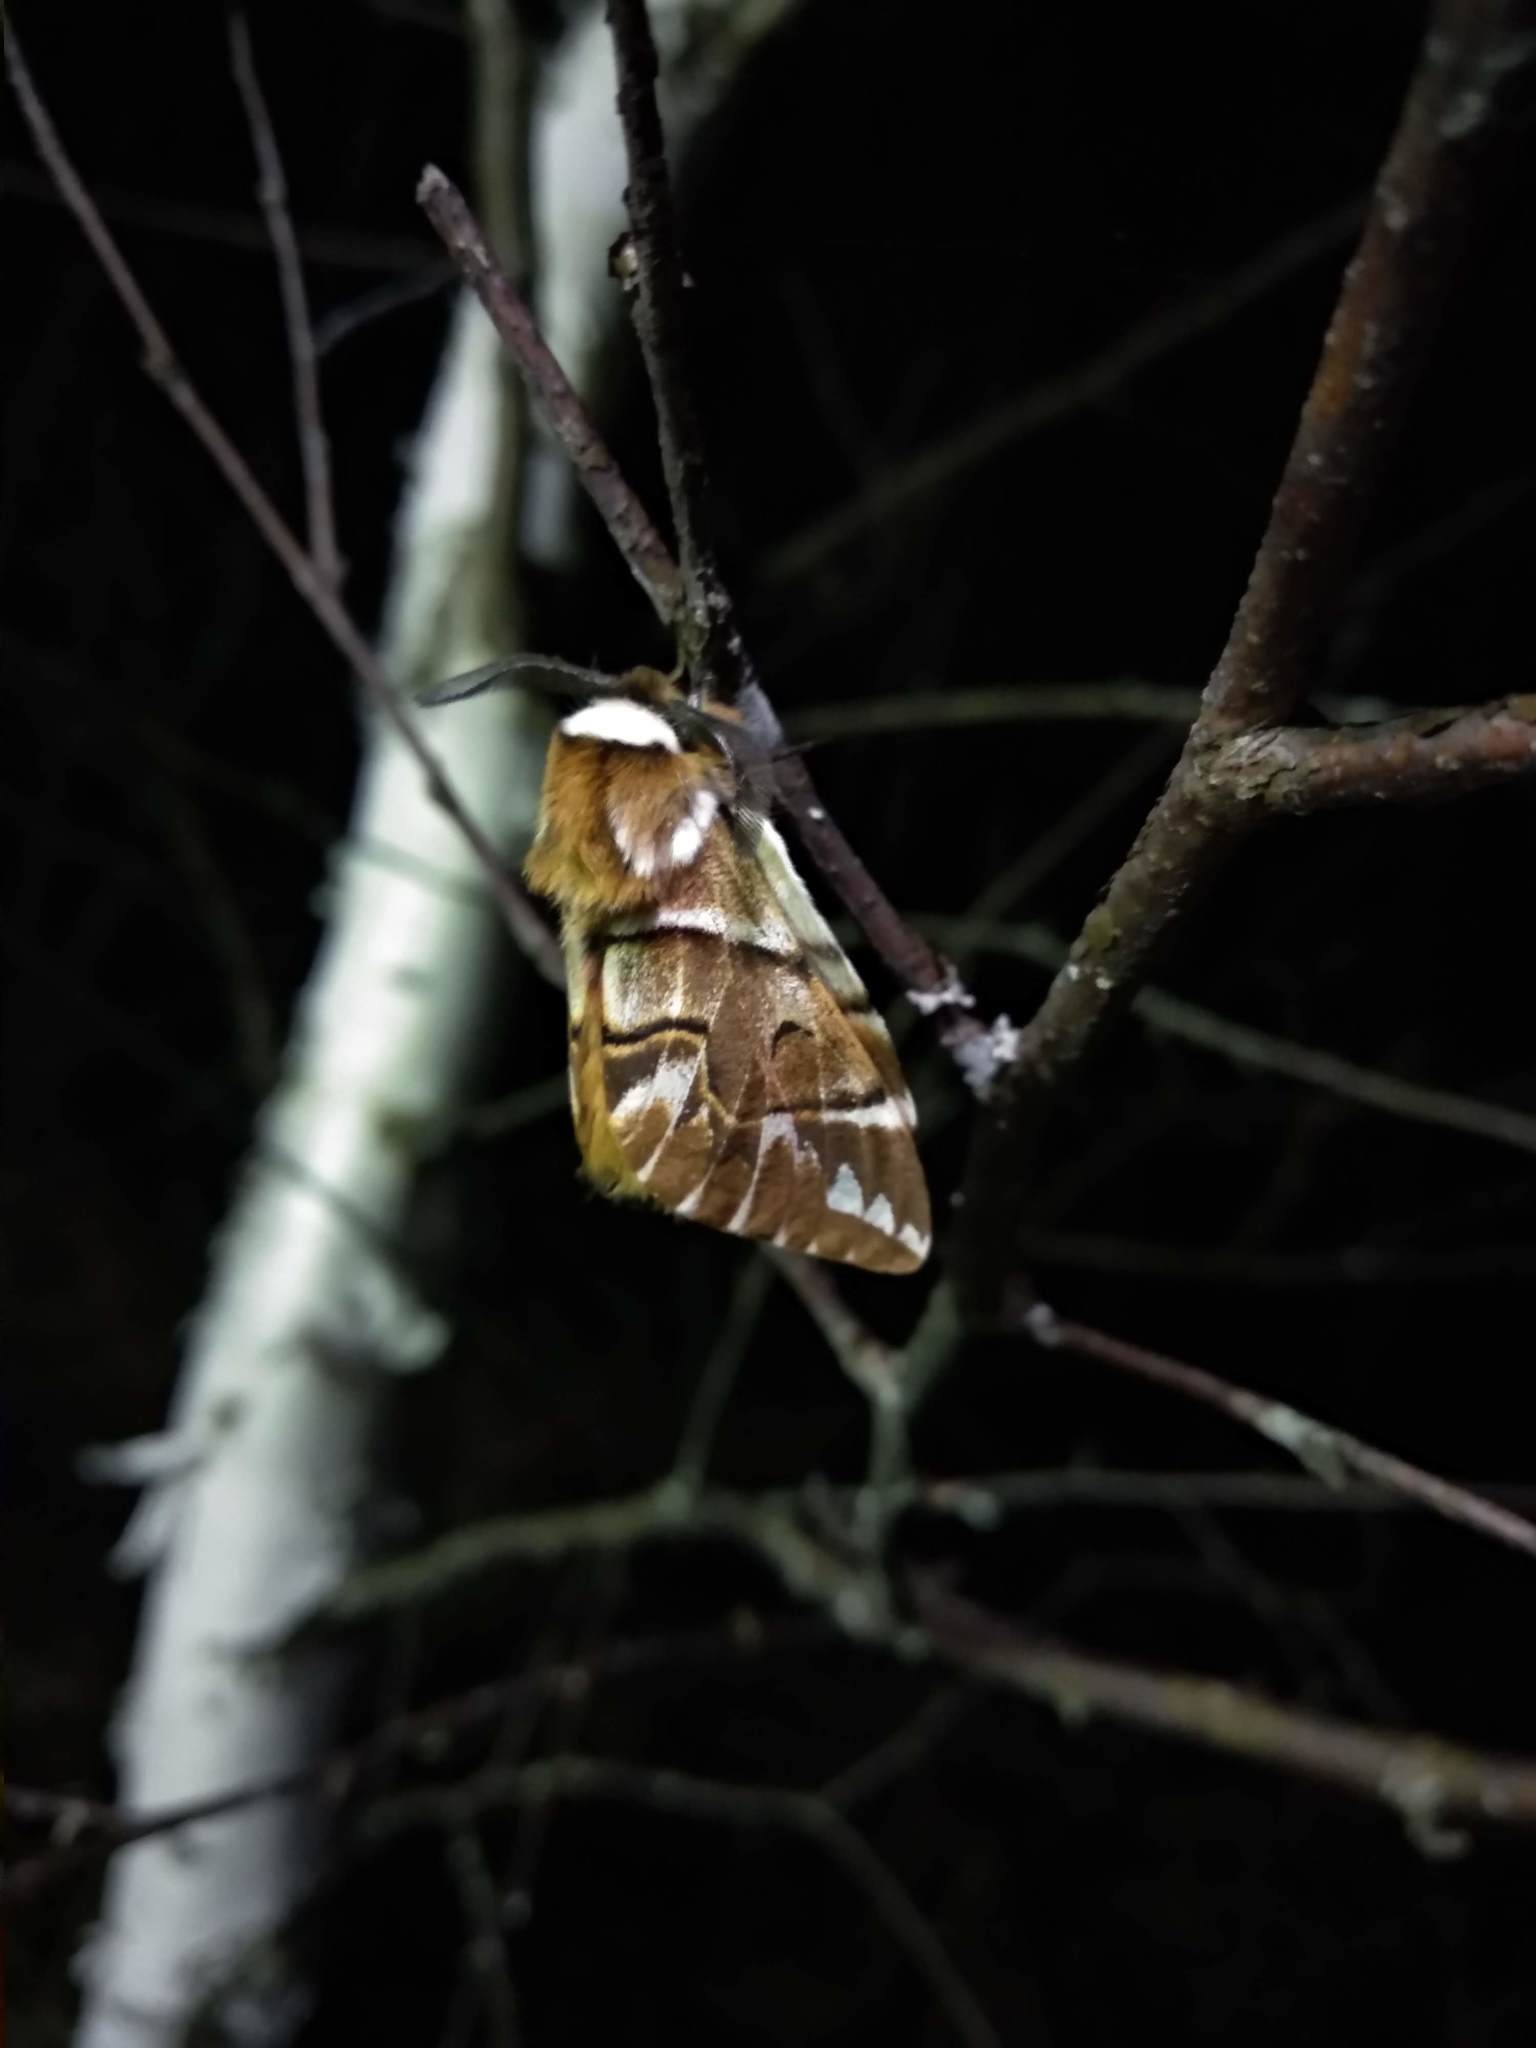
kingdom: Animalia
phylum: Arthropoda
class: Insecta
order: Lepidoptera
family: Endromidae
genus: Endromis
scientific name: Endromis versicolora
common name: Kentish glory
